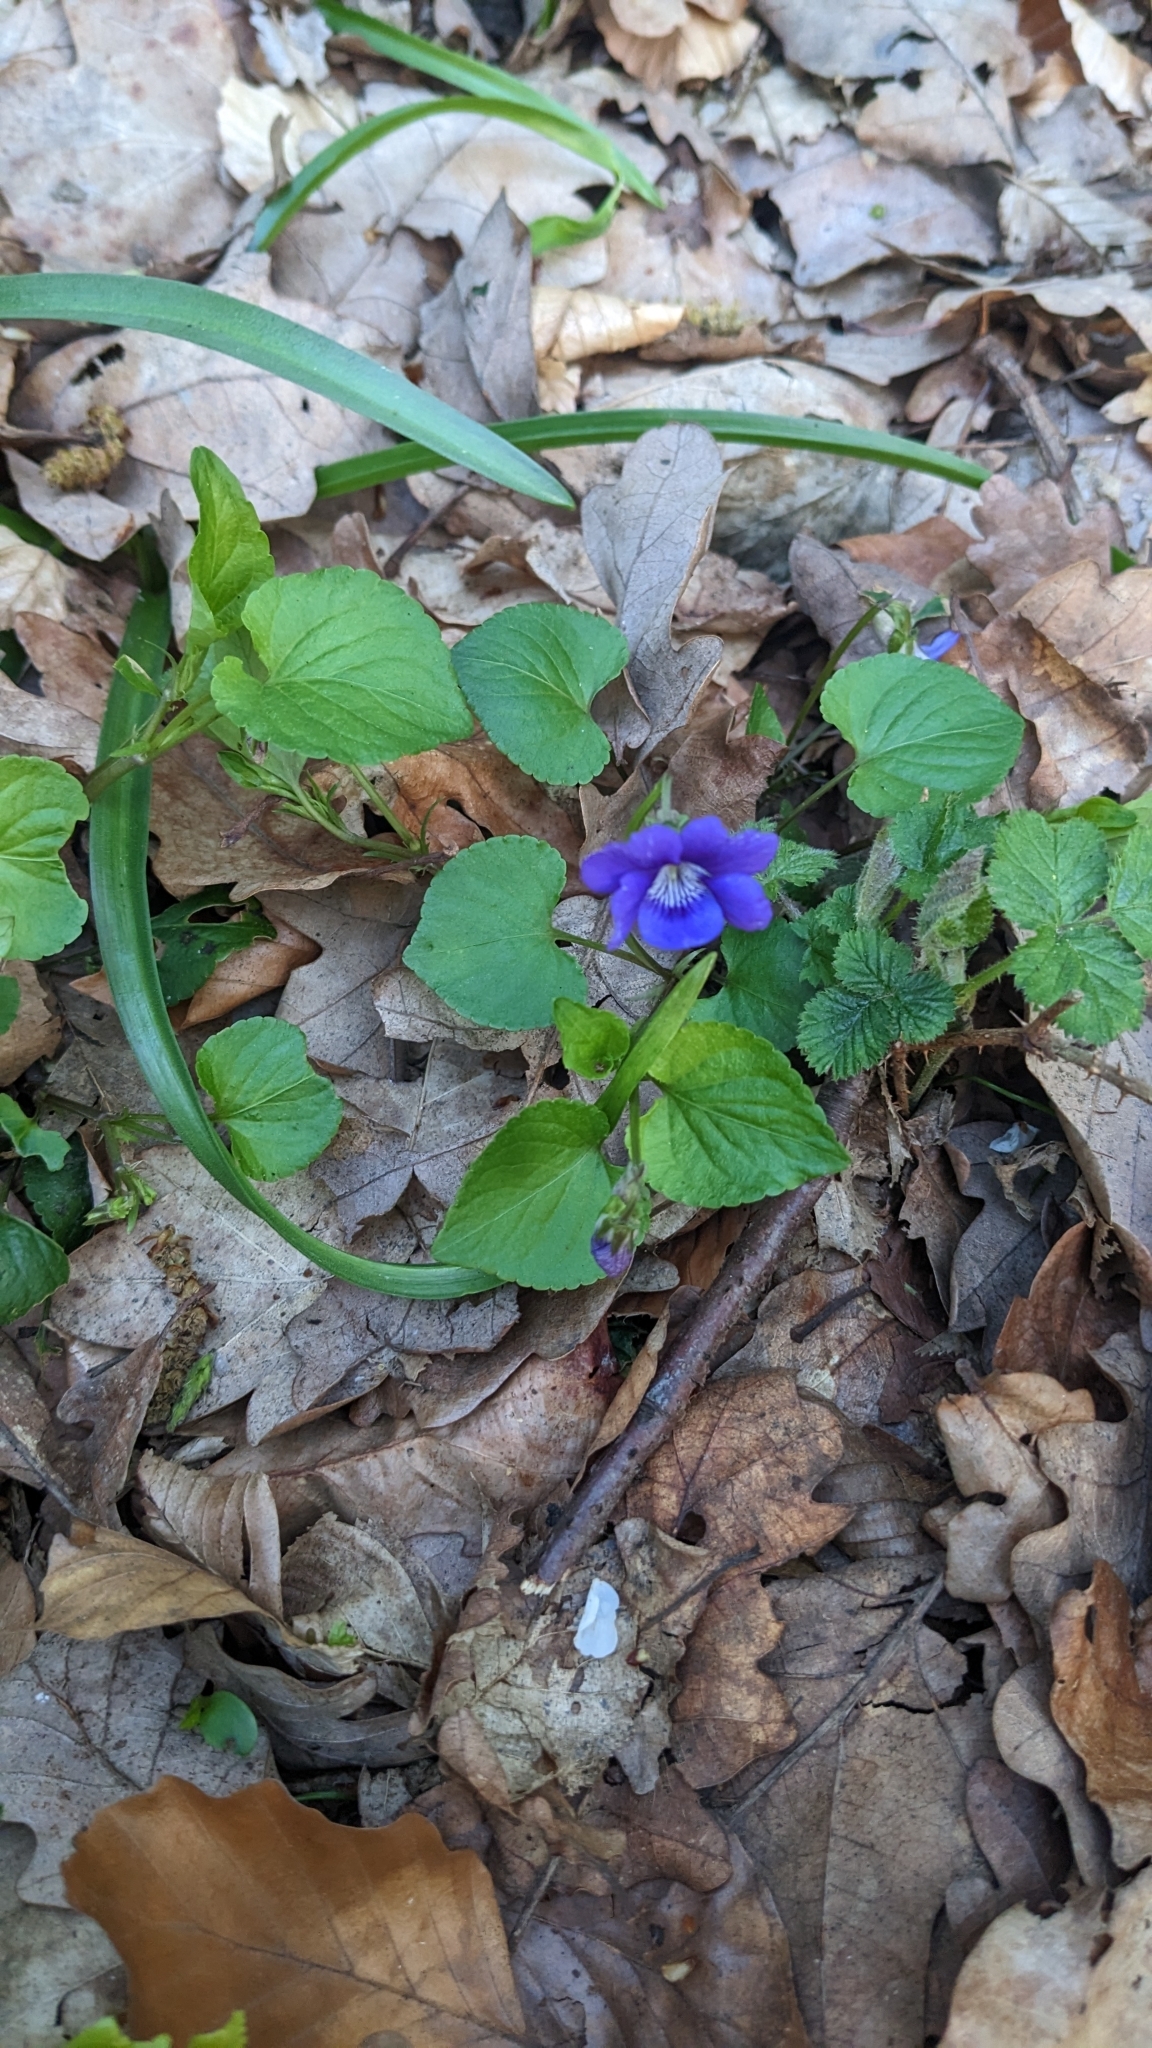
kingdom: Plantae
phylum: Tracheophyta
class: Magnoliopsida
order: Malpighiales
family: Violaceae
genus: Viola
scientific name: Viola riviniana
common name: Common dog-violet
